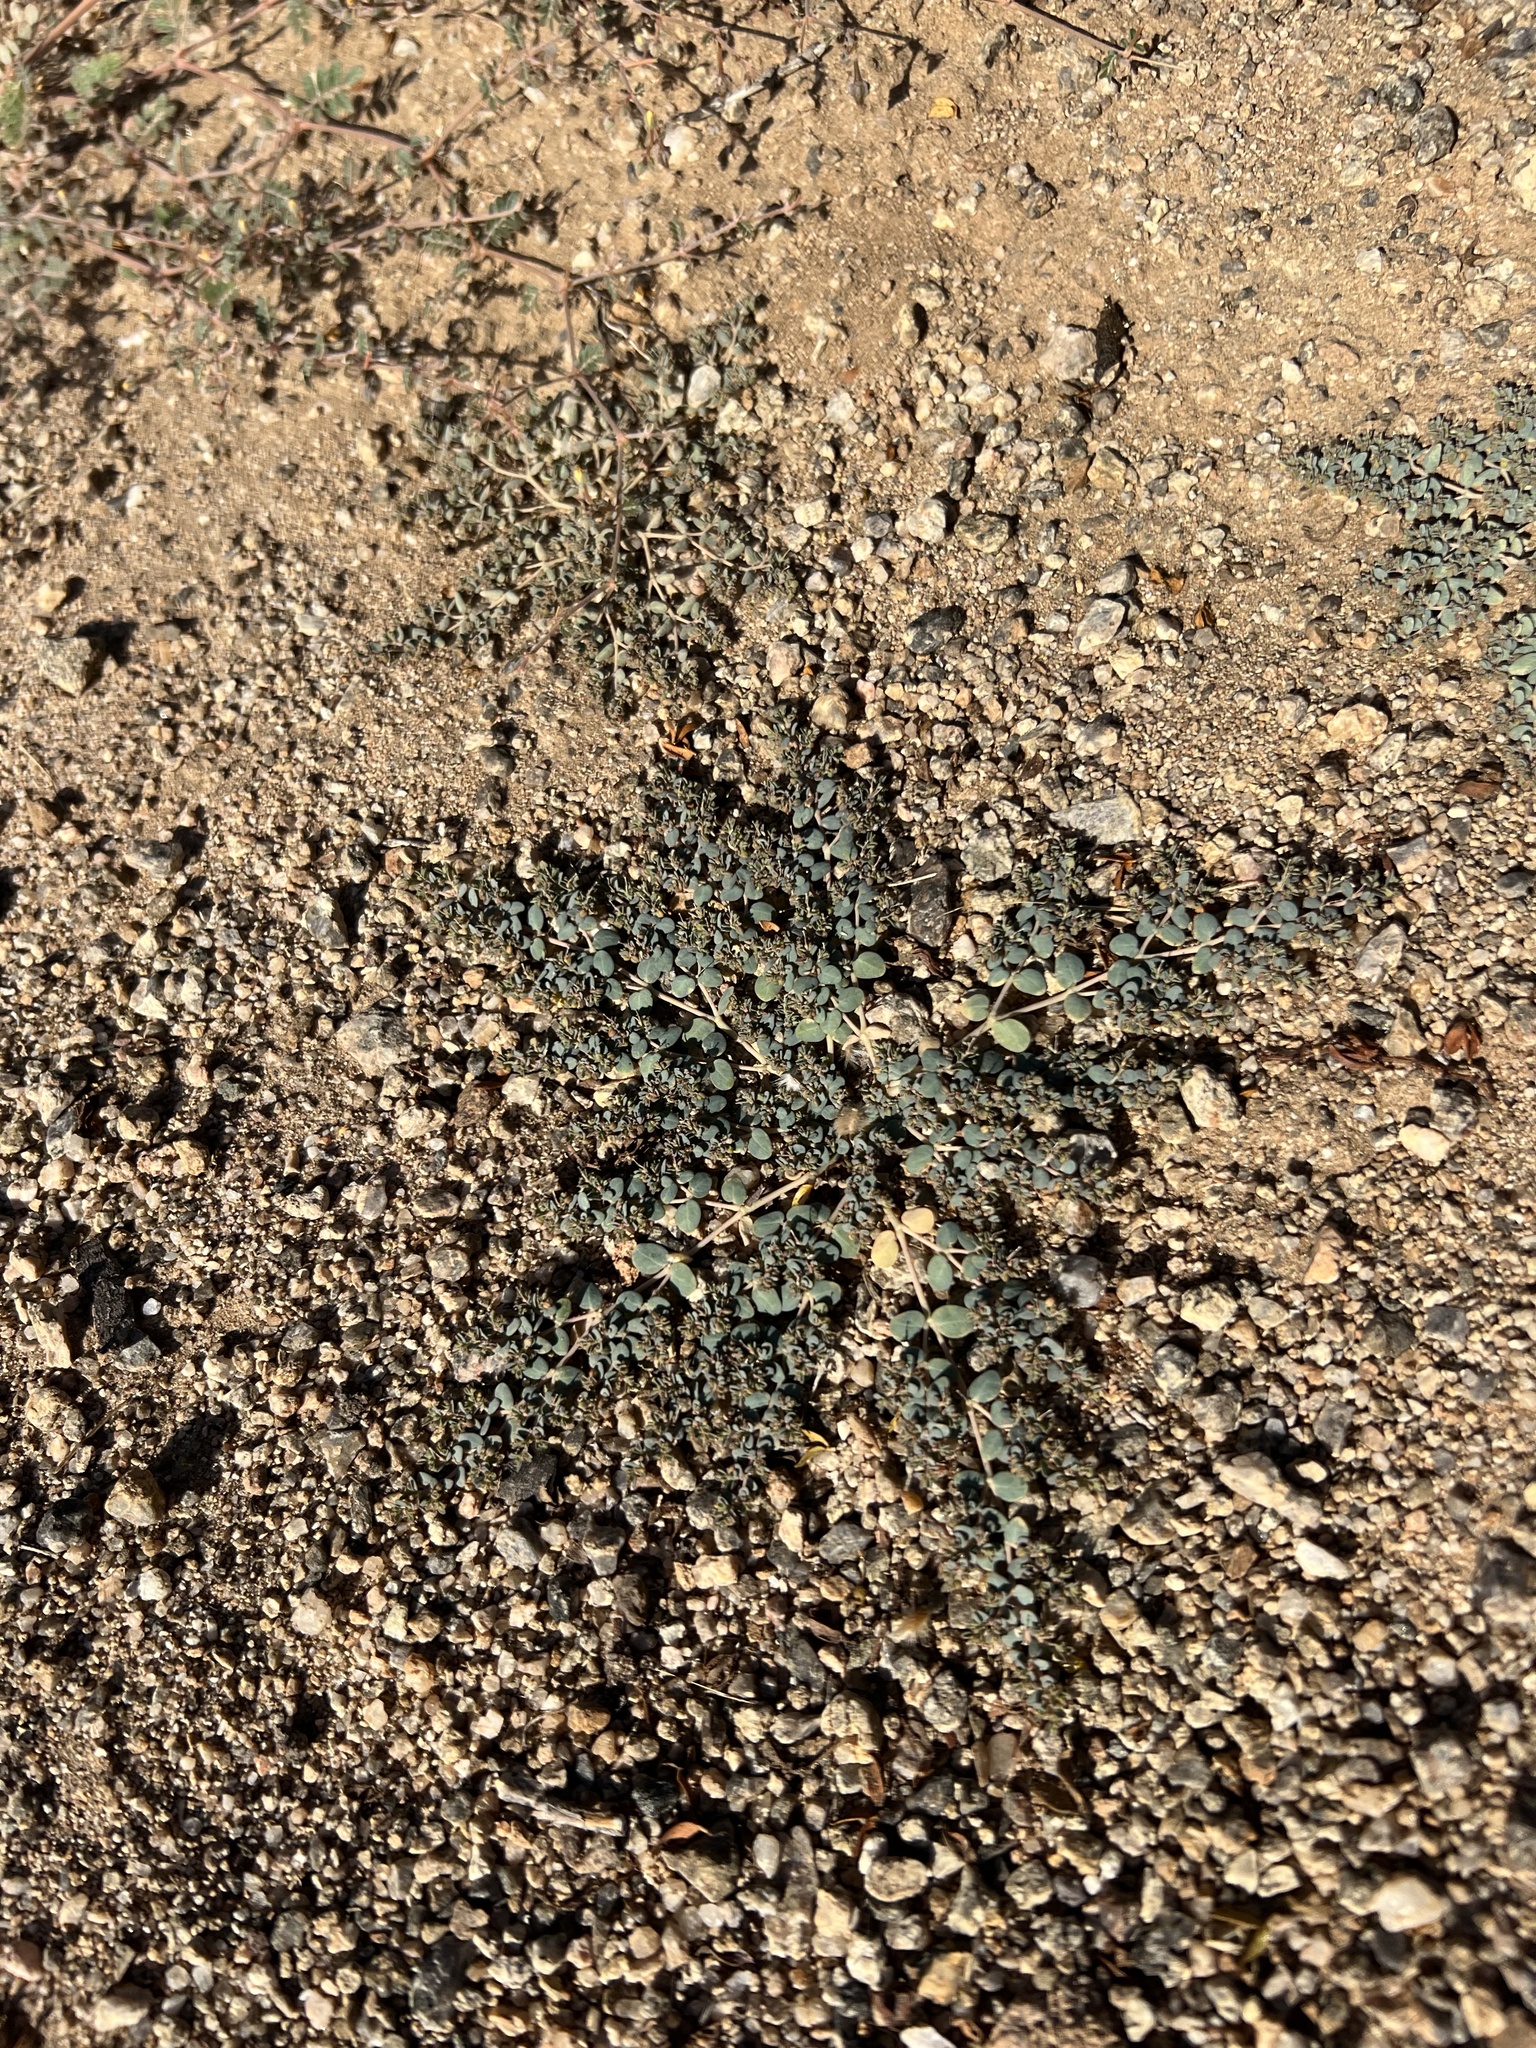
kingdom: Plantae
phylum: Tracheophyta
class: Magnoliopsida
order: Malpighiales
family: Euphorbiaceae
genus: Euphorbia
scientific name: Euphorbia micromera
